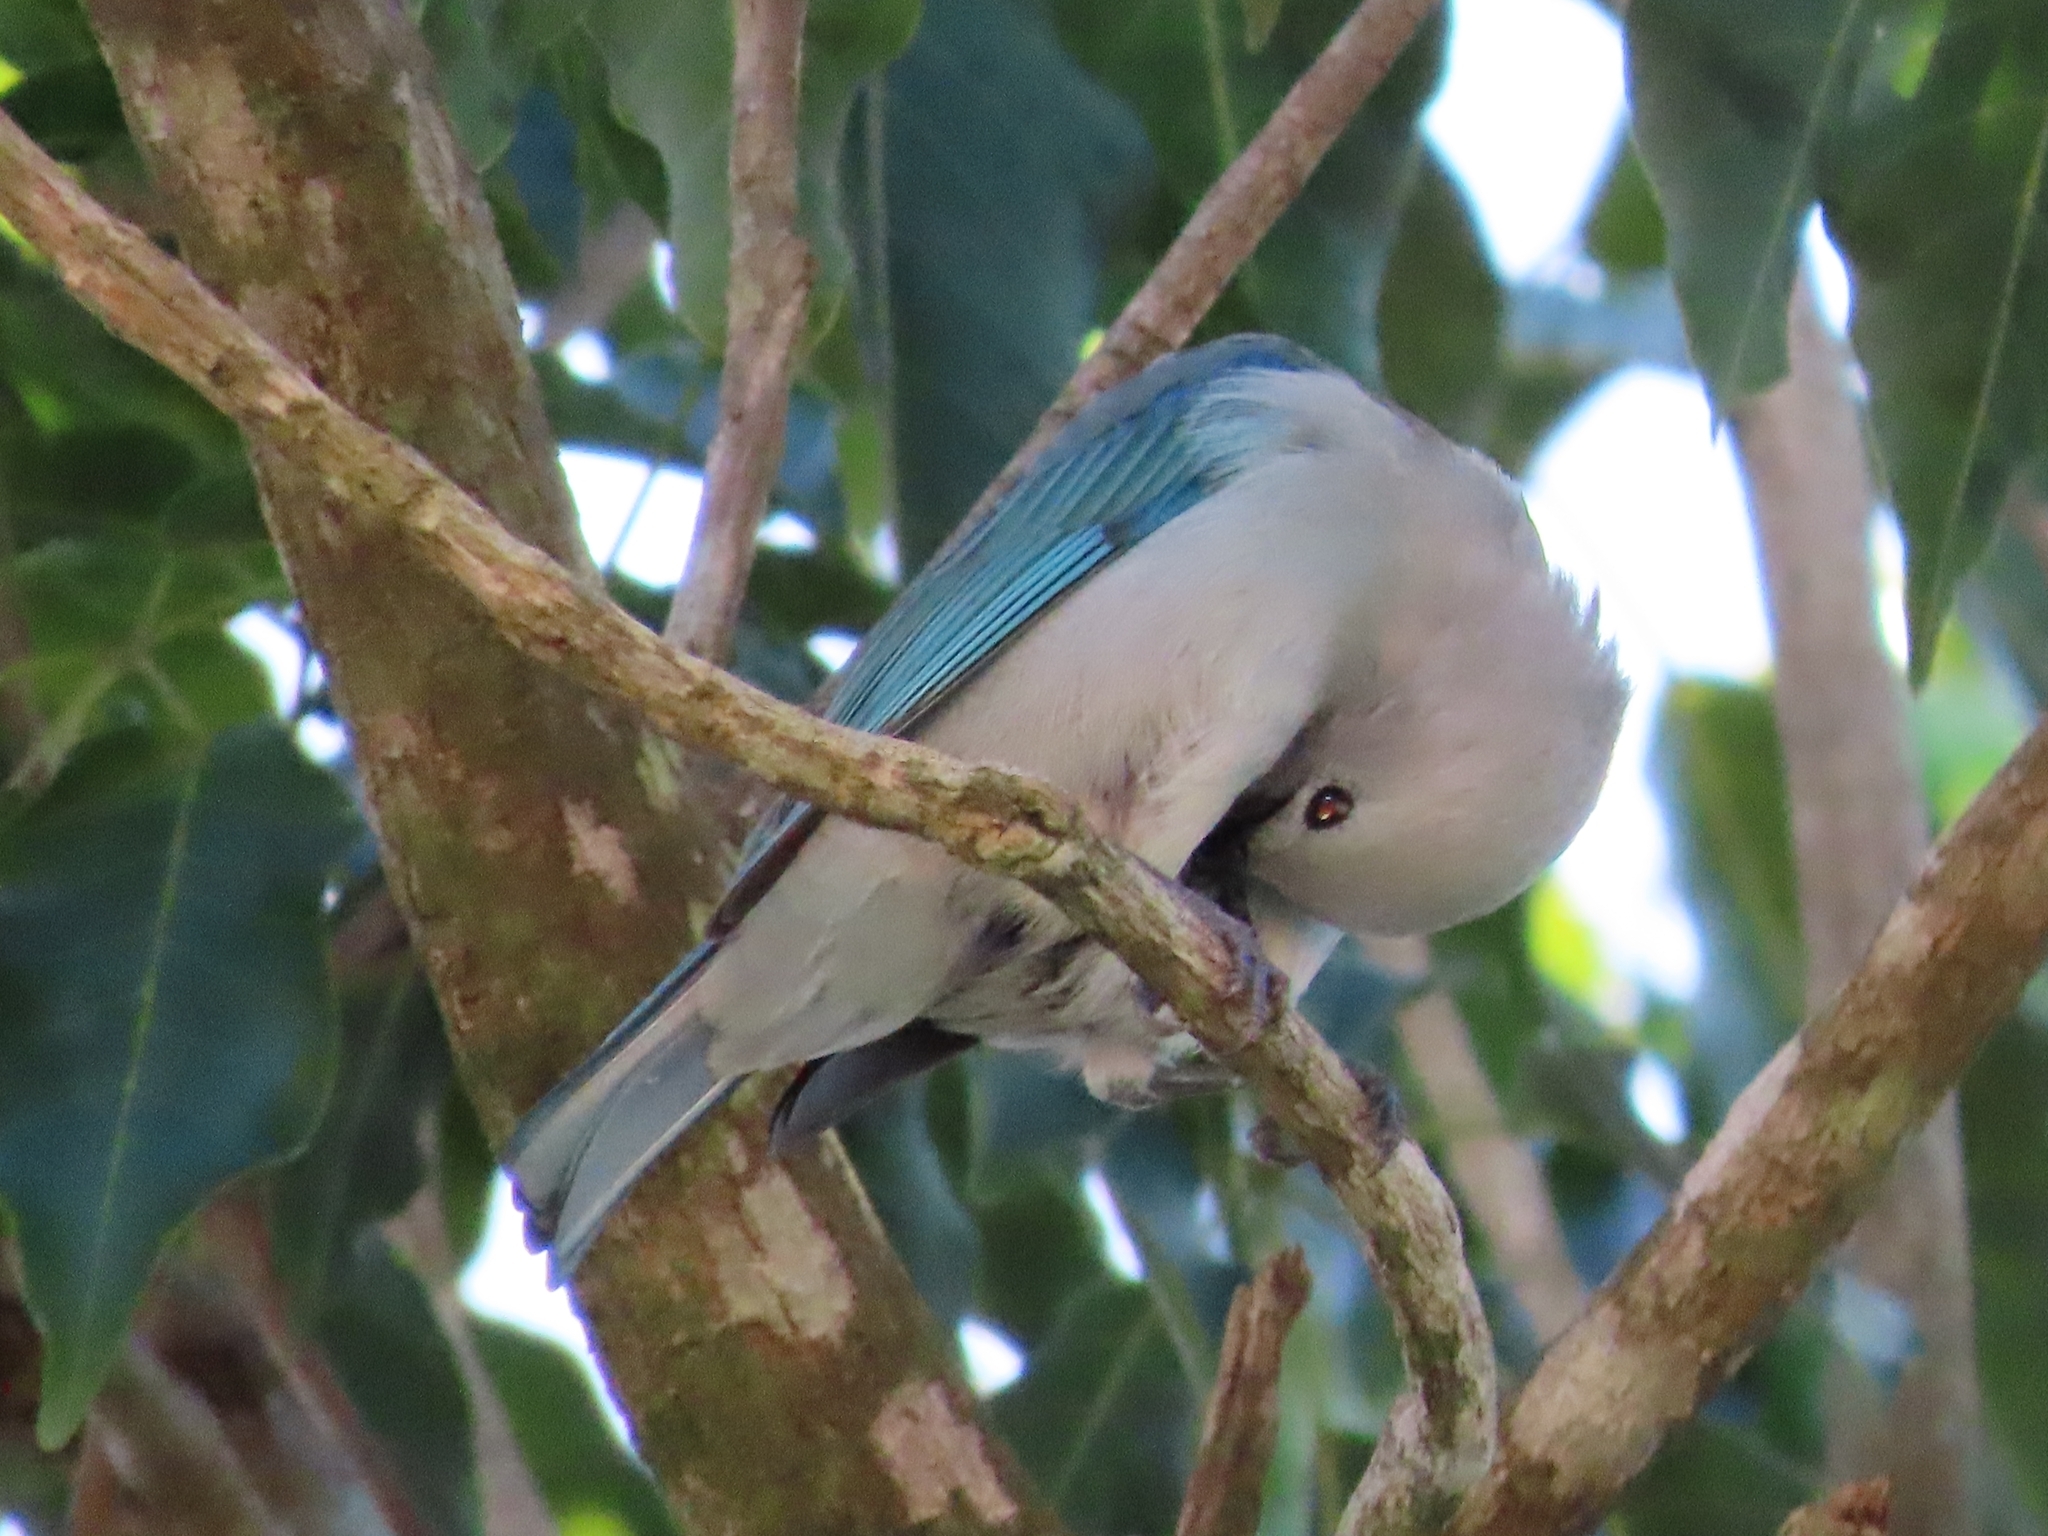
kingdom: Animalia
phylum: Chordata
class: Aves
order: Passeriformes
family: Thraupidae
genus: Thraupis
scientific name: Thraupis episcopus
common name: Blue-grey tanager
